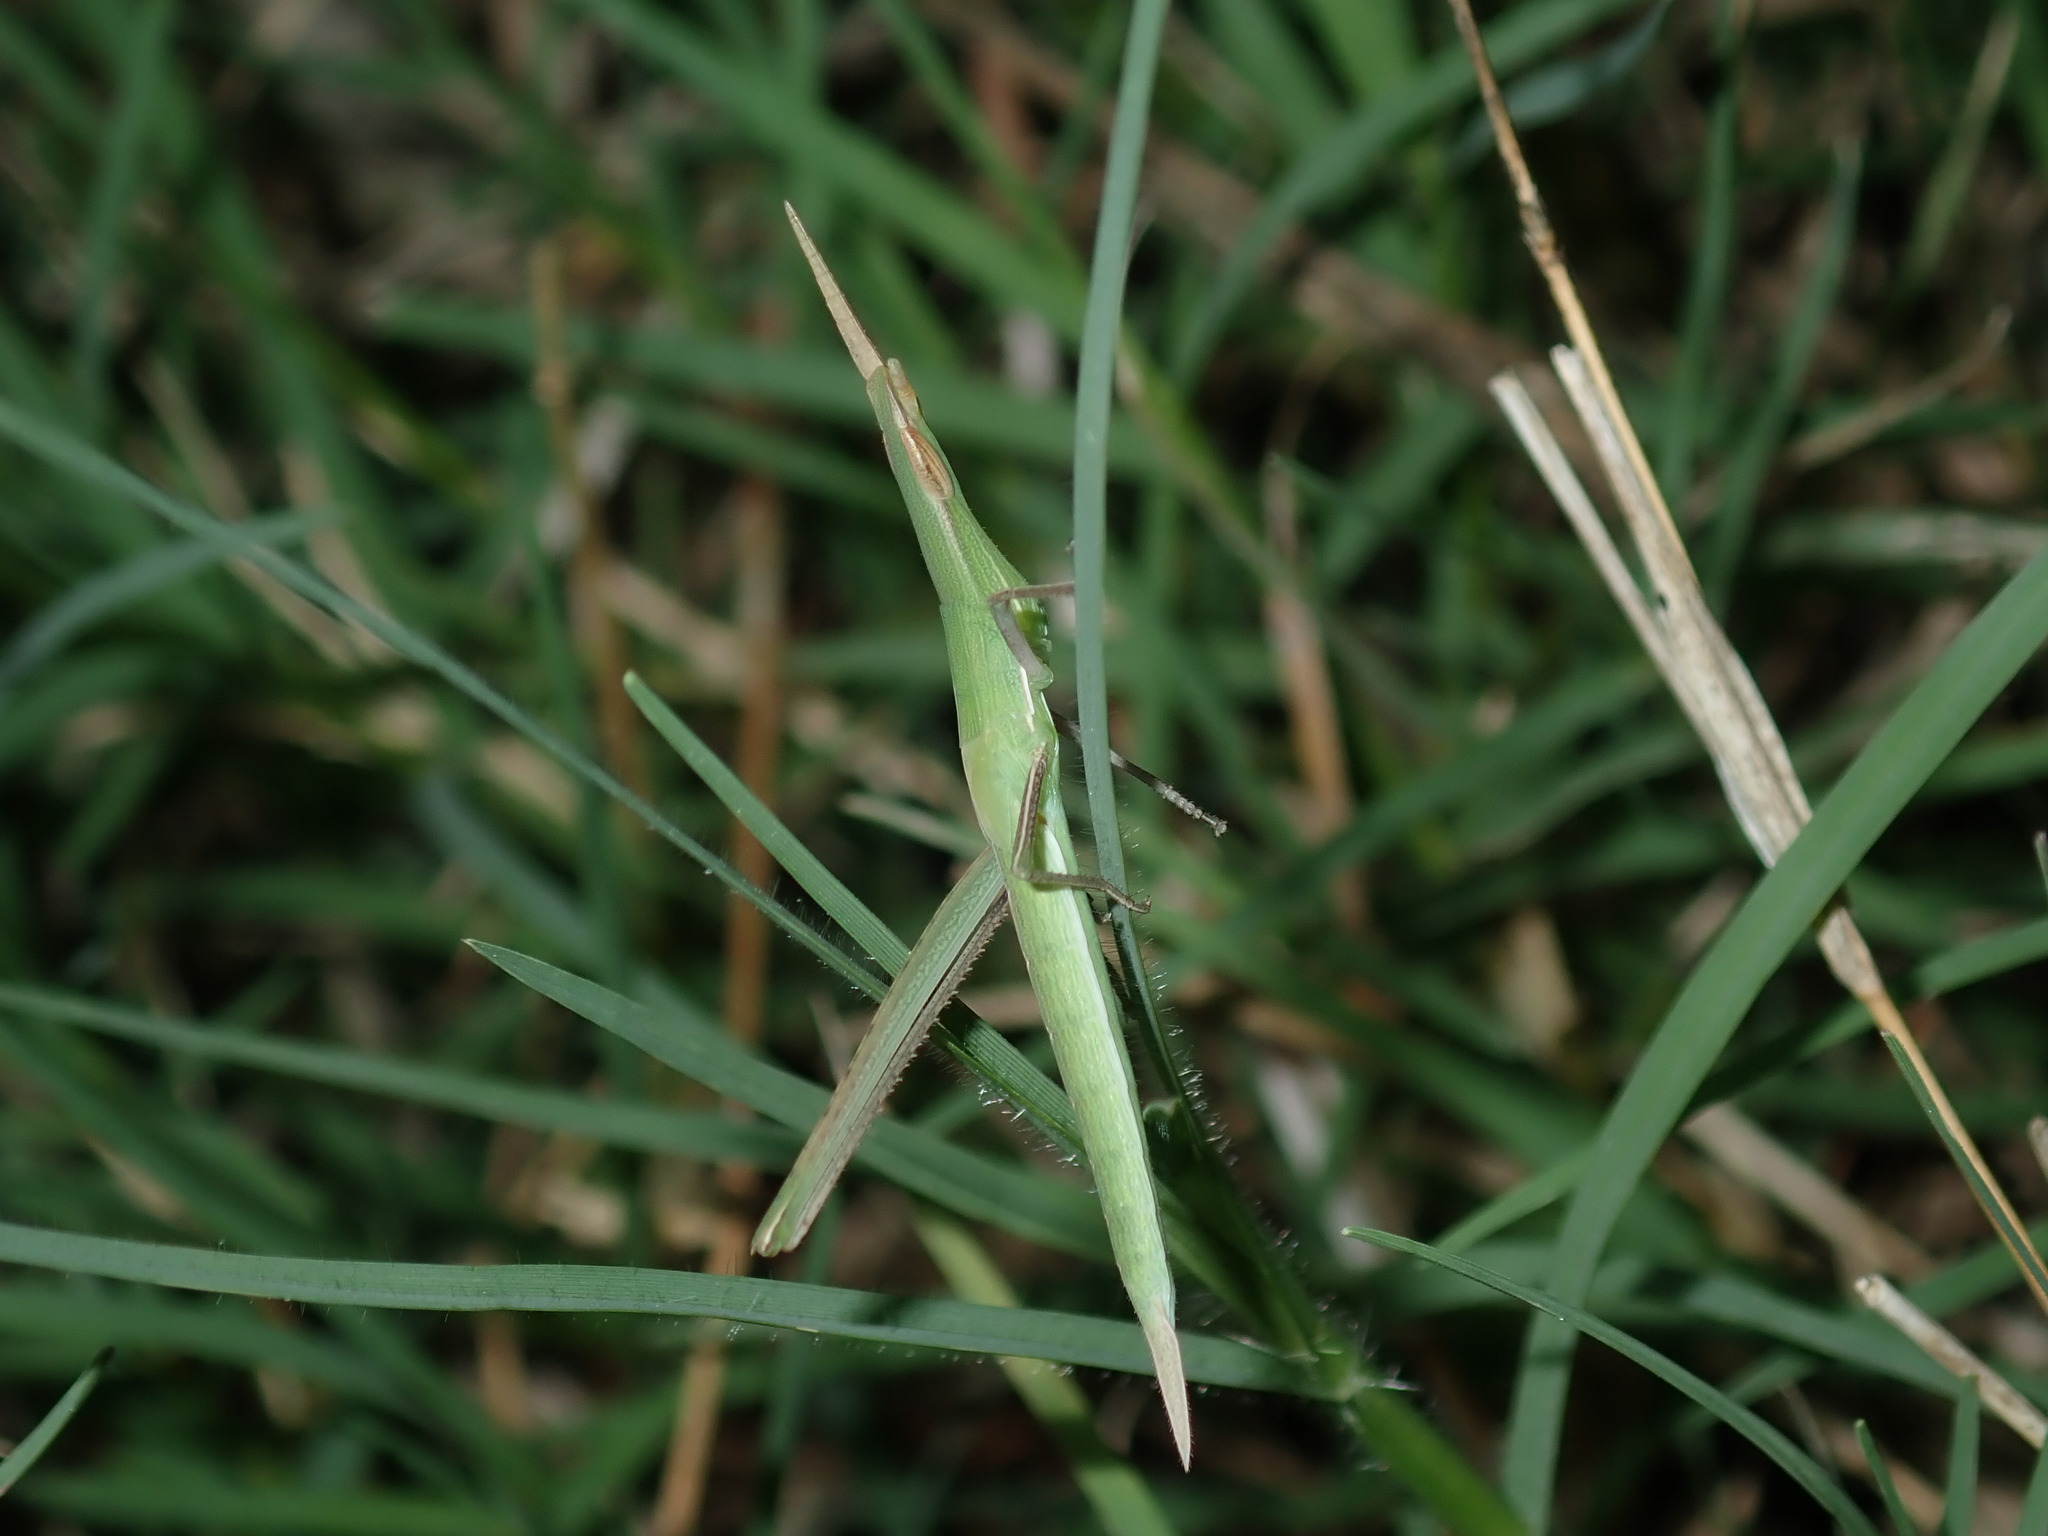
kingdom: Animalia
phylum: Arthropoda
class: Insecta
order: Orthoptera
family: Acrididae
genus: Acrida
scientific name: Acrida conica
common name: Giant green slantface
